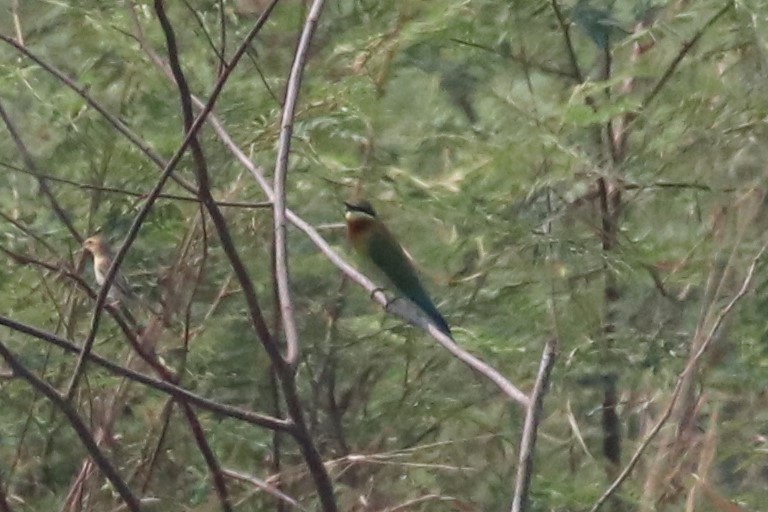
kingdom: Animalia
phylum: Chordata
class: Aves
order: Coraciiformes
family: Meropidae
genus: Merops
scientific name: Merops philippinus
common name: Blue-tailed bee-eater
